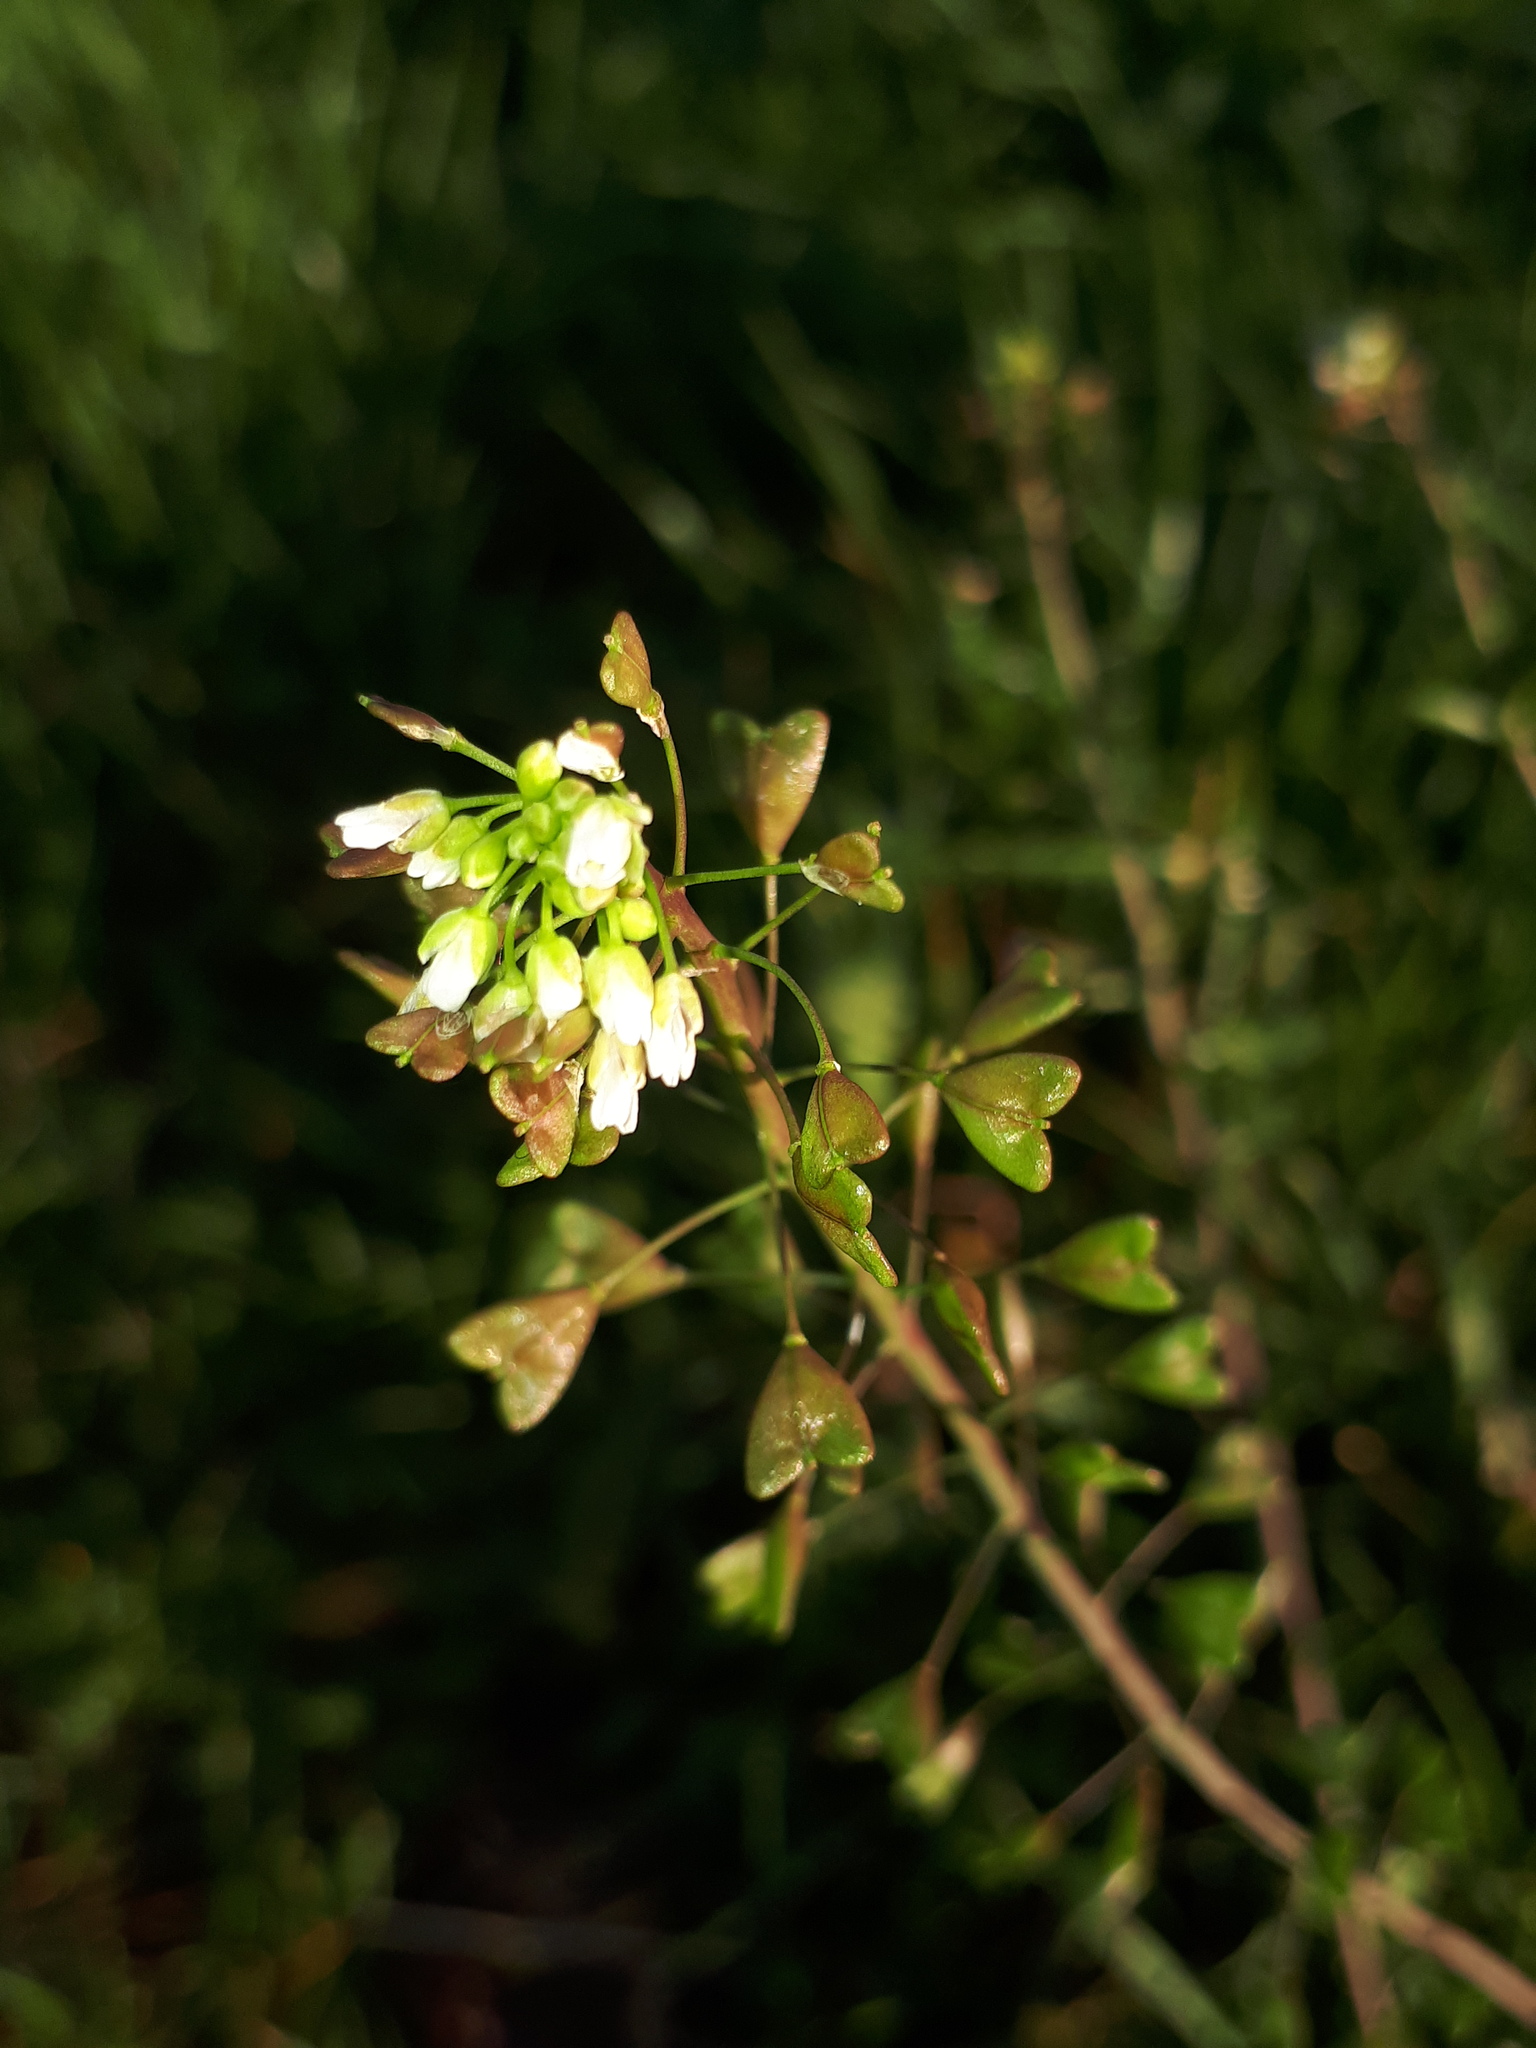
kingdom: Plantae
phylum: Tracheophyta
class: Magnoliopsida
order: Brassicales
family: Brassicaceae
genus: Capsella
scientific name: Capsella bursa-pastoris
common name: Shepherd's purse
